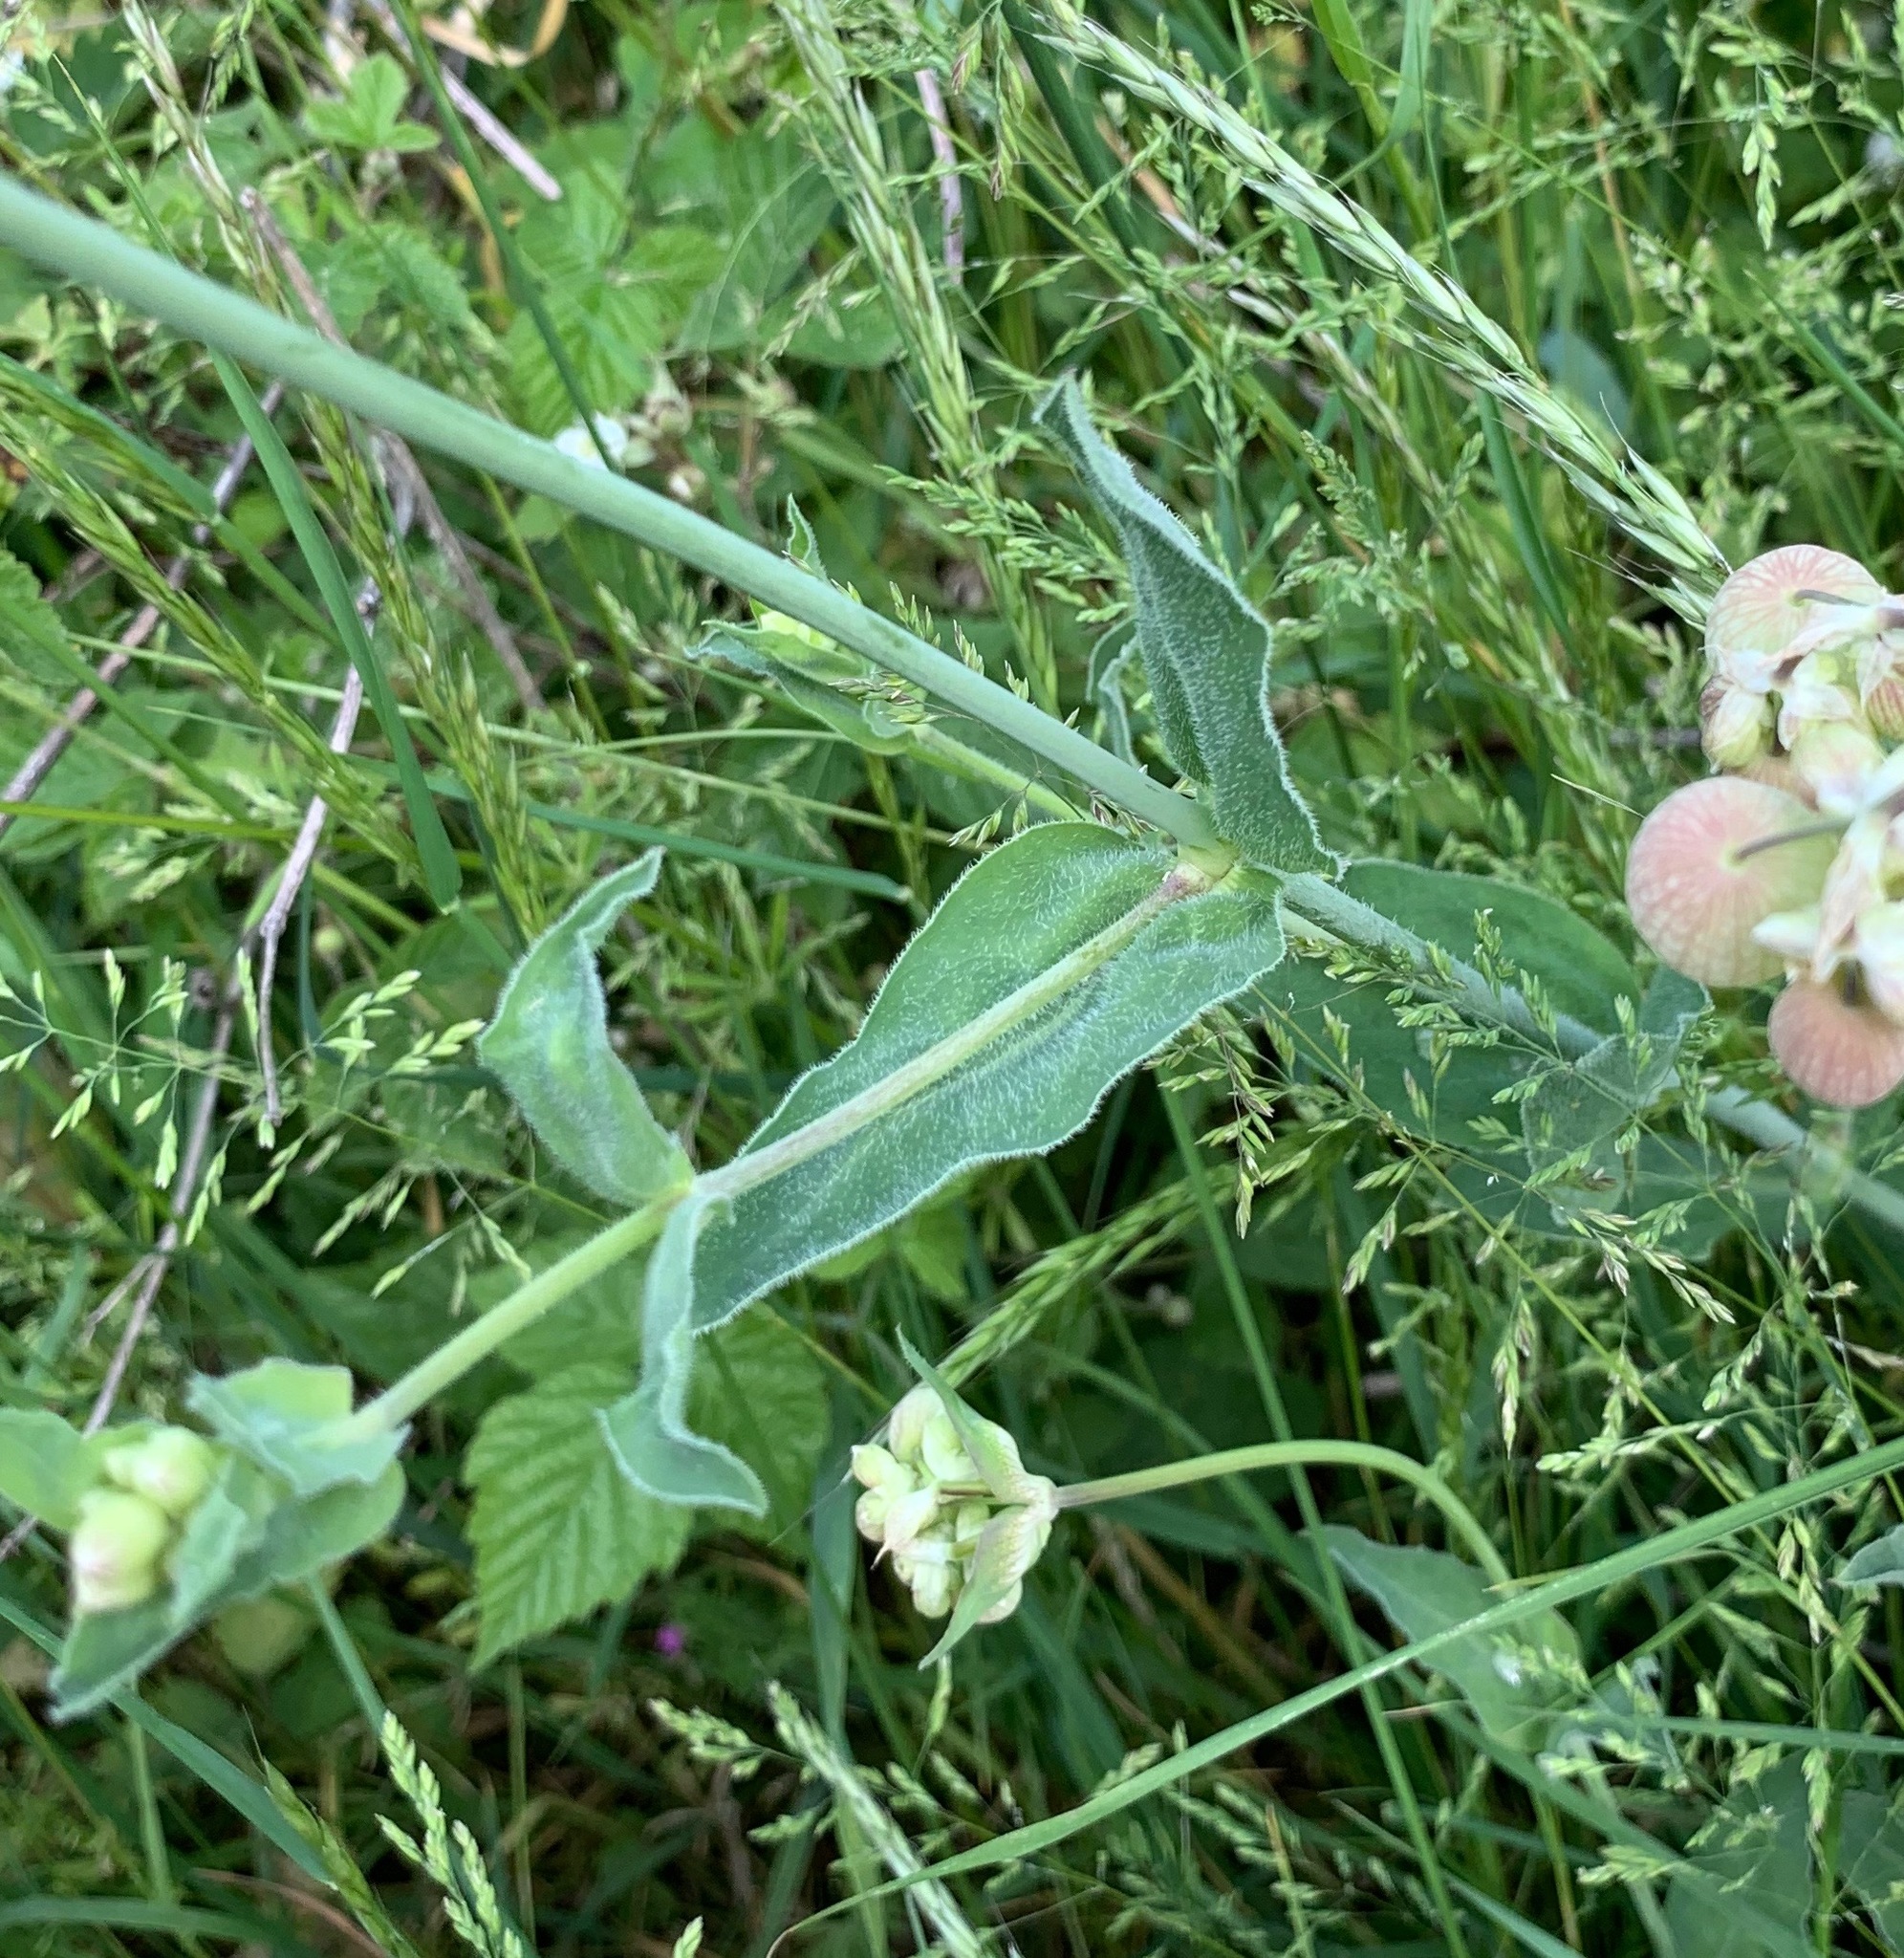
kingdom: Plantae
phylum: Tracheophyta
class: Magnoliopsida
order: Caryophyllales
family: Caryophyllaceae
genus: Silene
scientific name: Silene vulgaris
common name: Bladder campion
